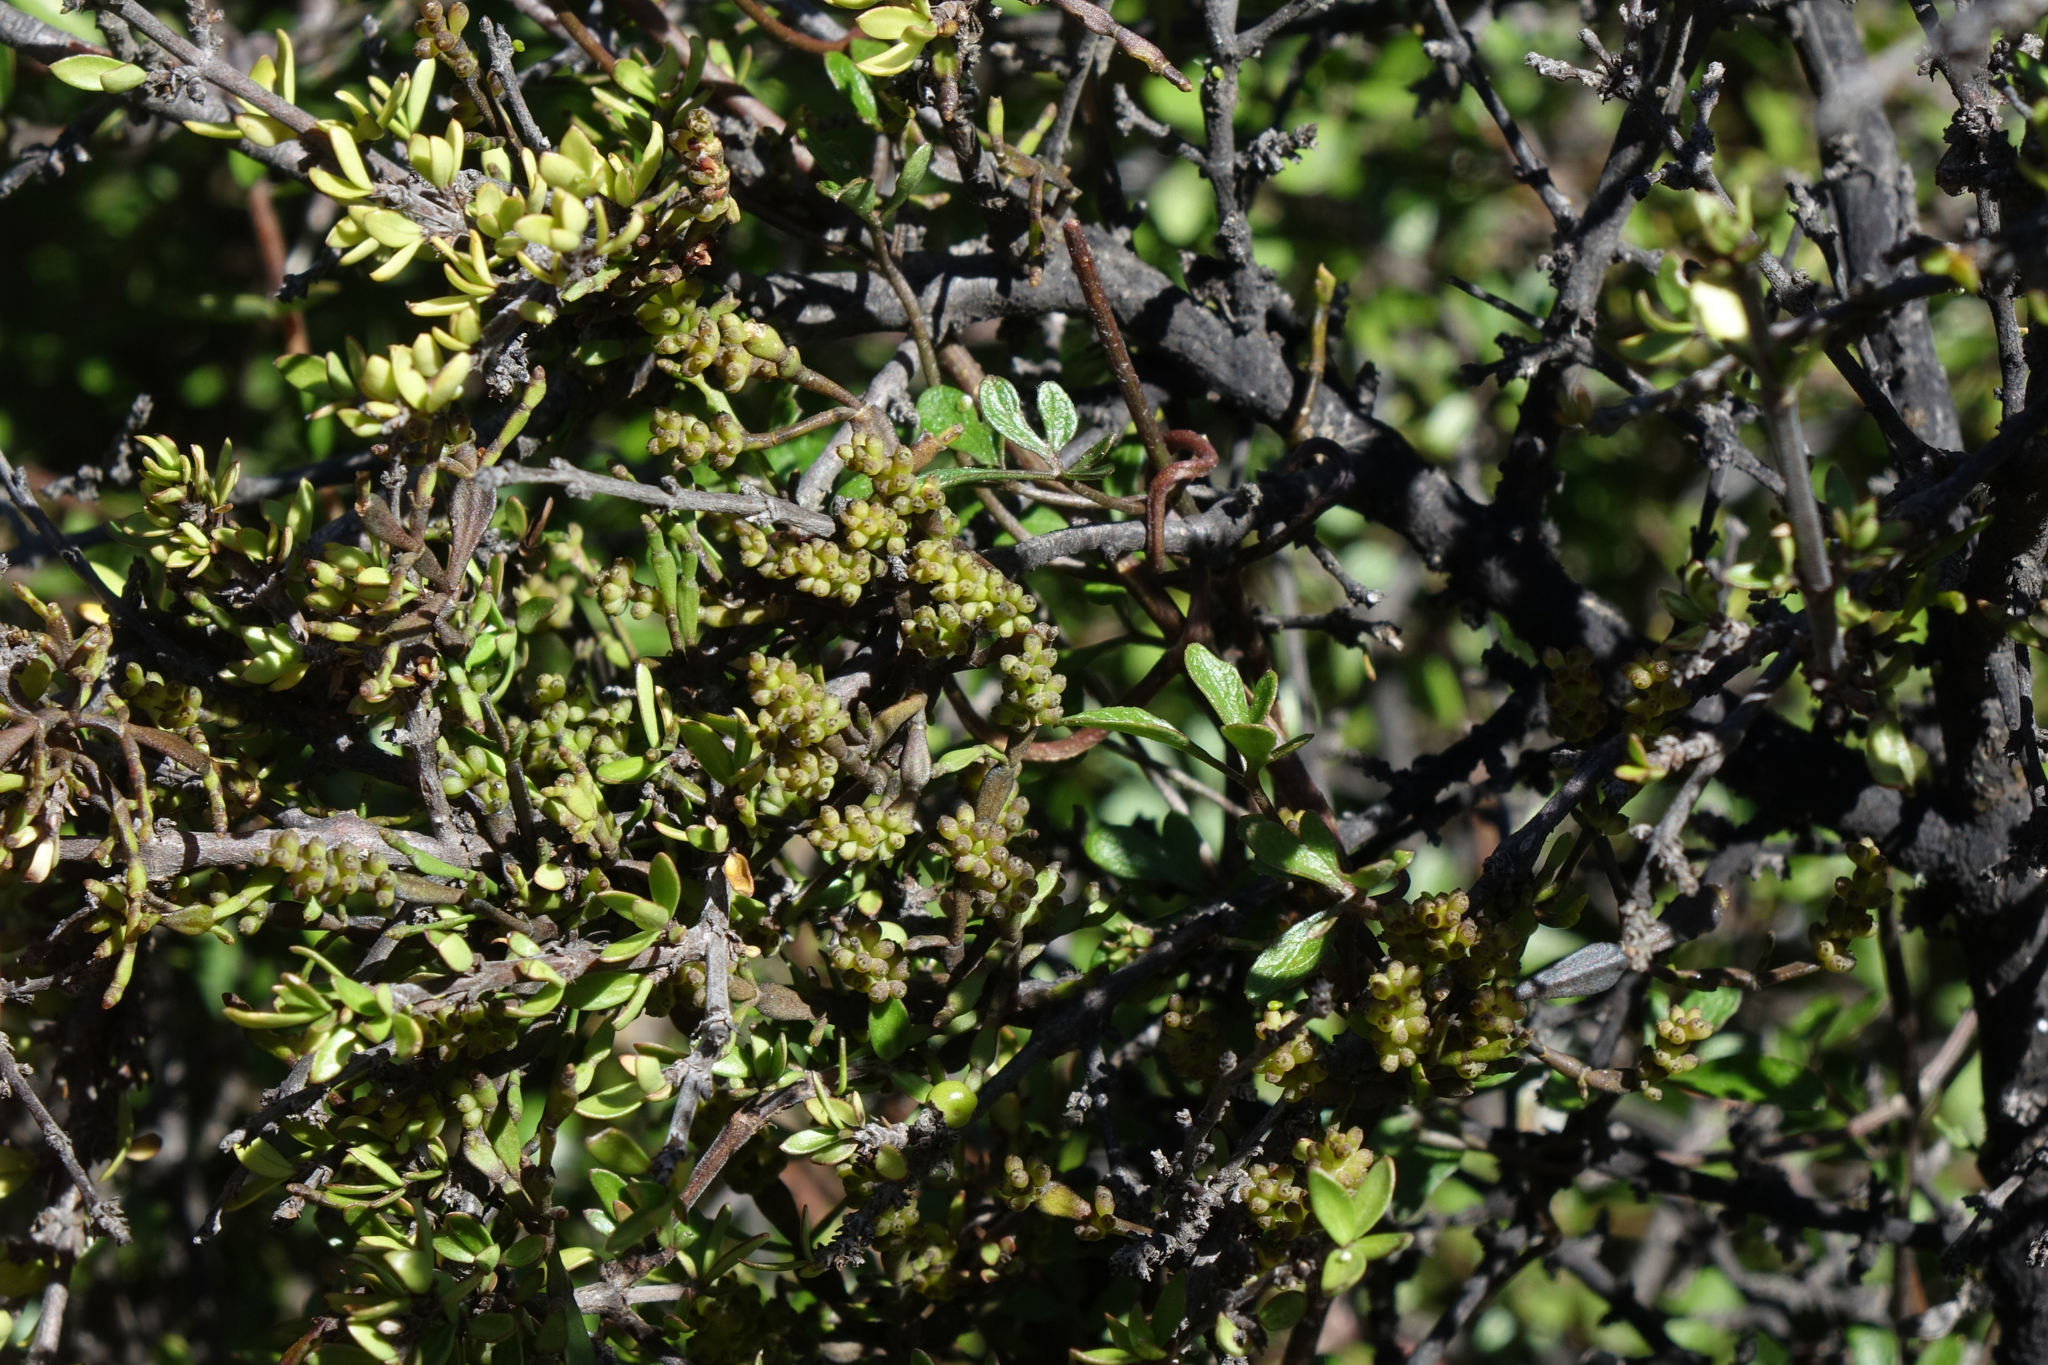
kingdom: Plantae
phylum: Tracheophyta
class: Magnoliopsida
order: Santalales
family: Viscaceae
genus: Korthalsella
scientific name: Korthalsella clavata
